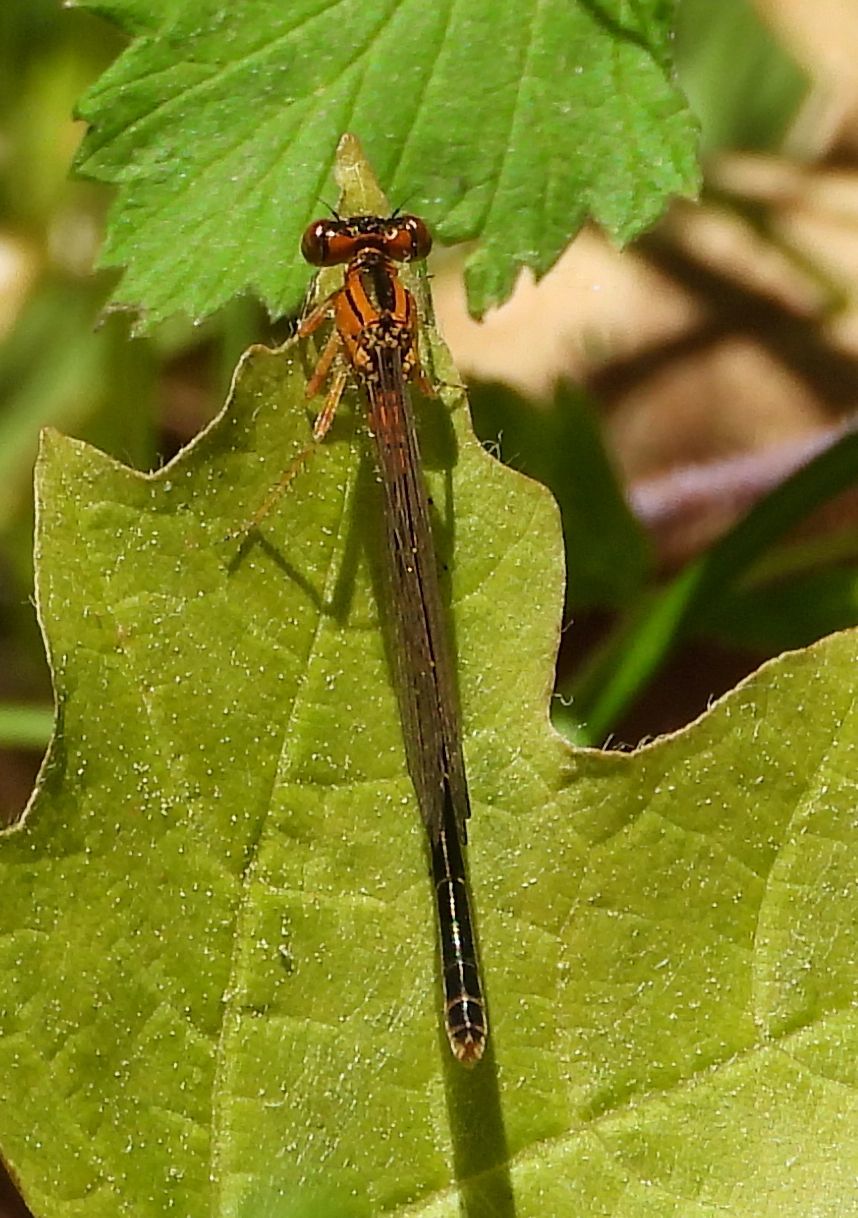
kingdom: Animalia
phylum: Arthropoda
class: Insecta
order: Odonata
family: Coenagrionidae
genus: Ischnura
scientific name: Ischnura verticalis
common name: Eastern forktail
